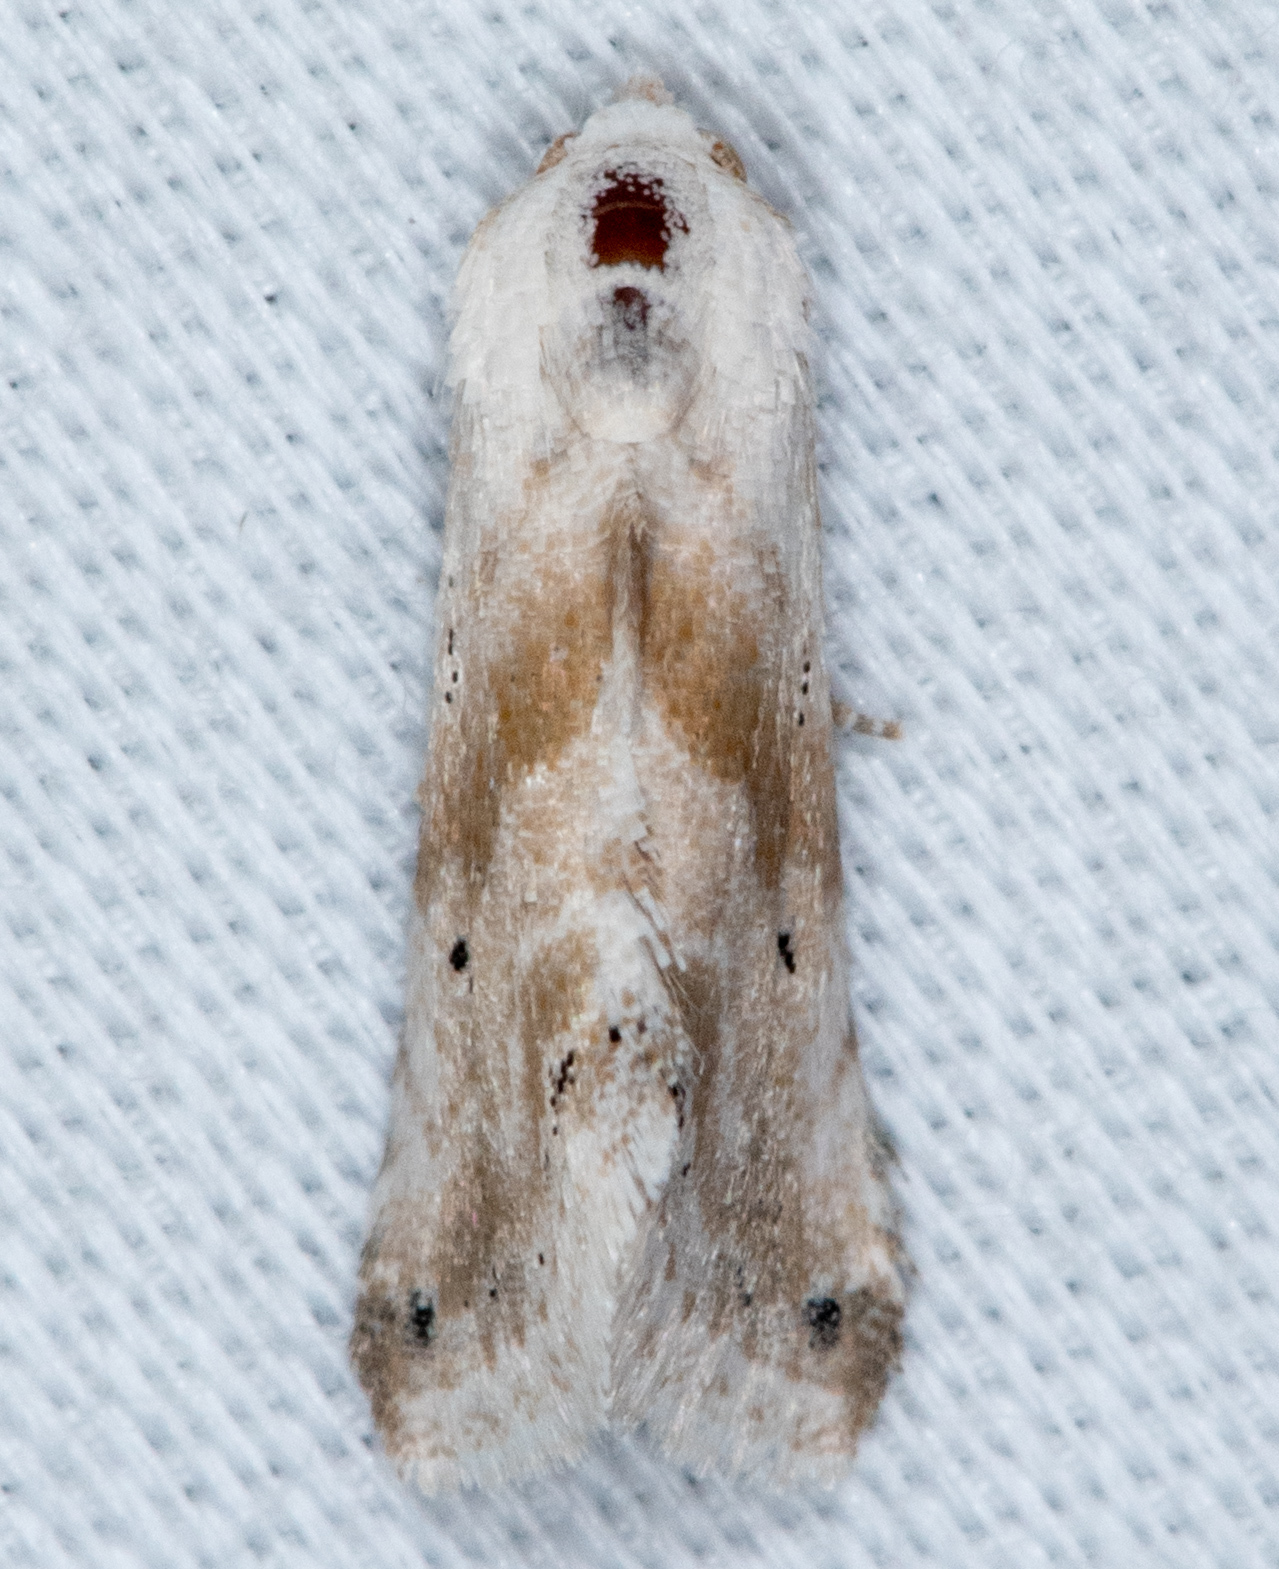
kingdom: Animalia
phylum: Arthropoda
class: Insecta
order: Lepidoptera
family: Noctuidae
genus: Eublemma
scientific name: Eublemma minima
